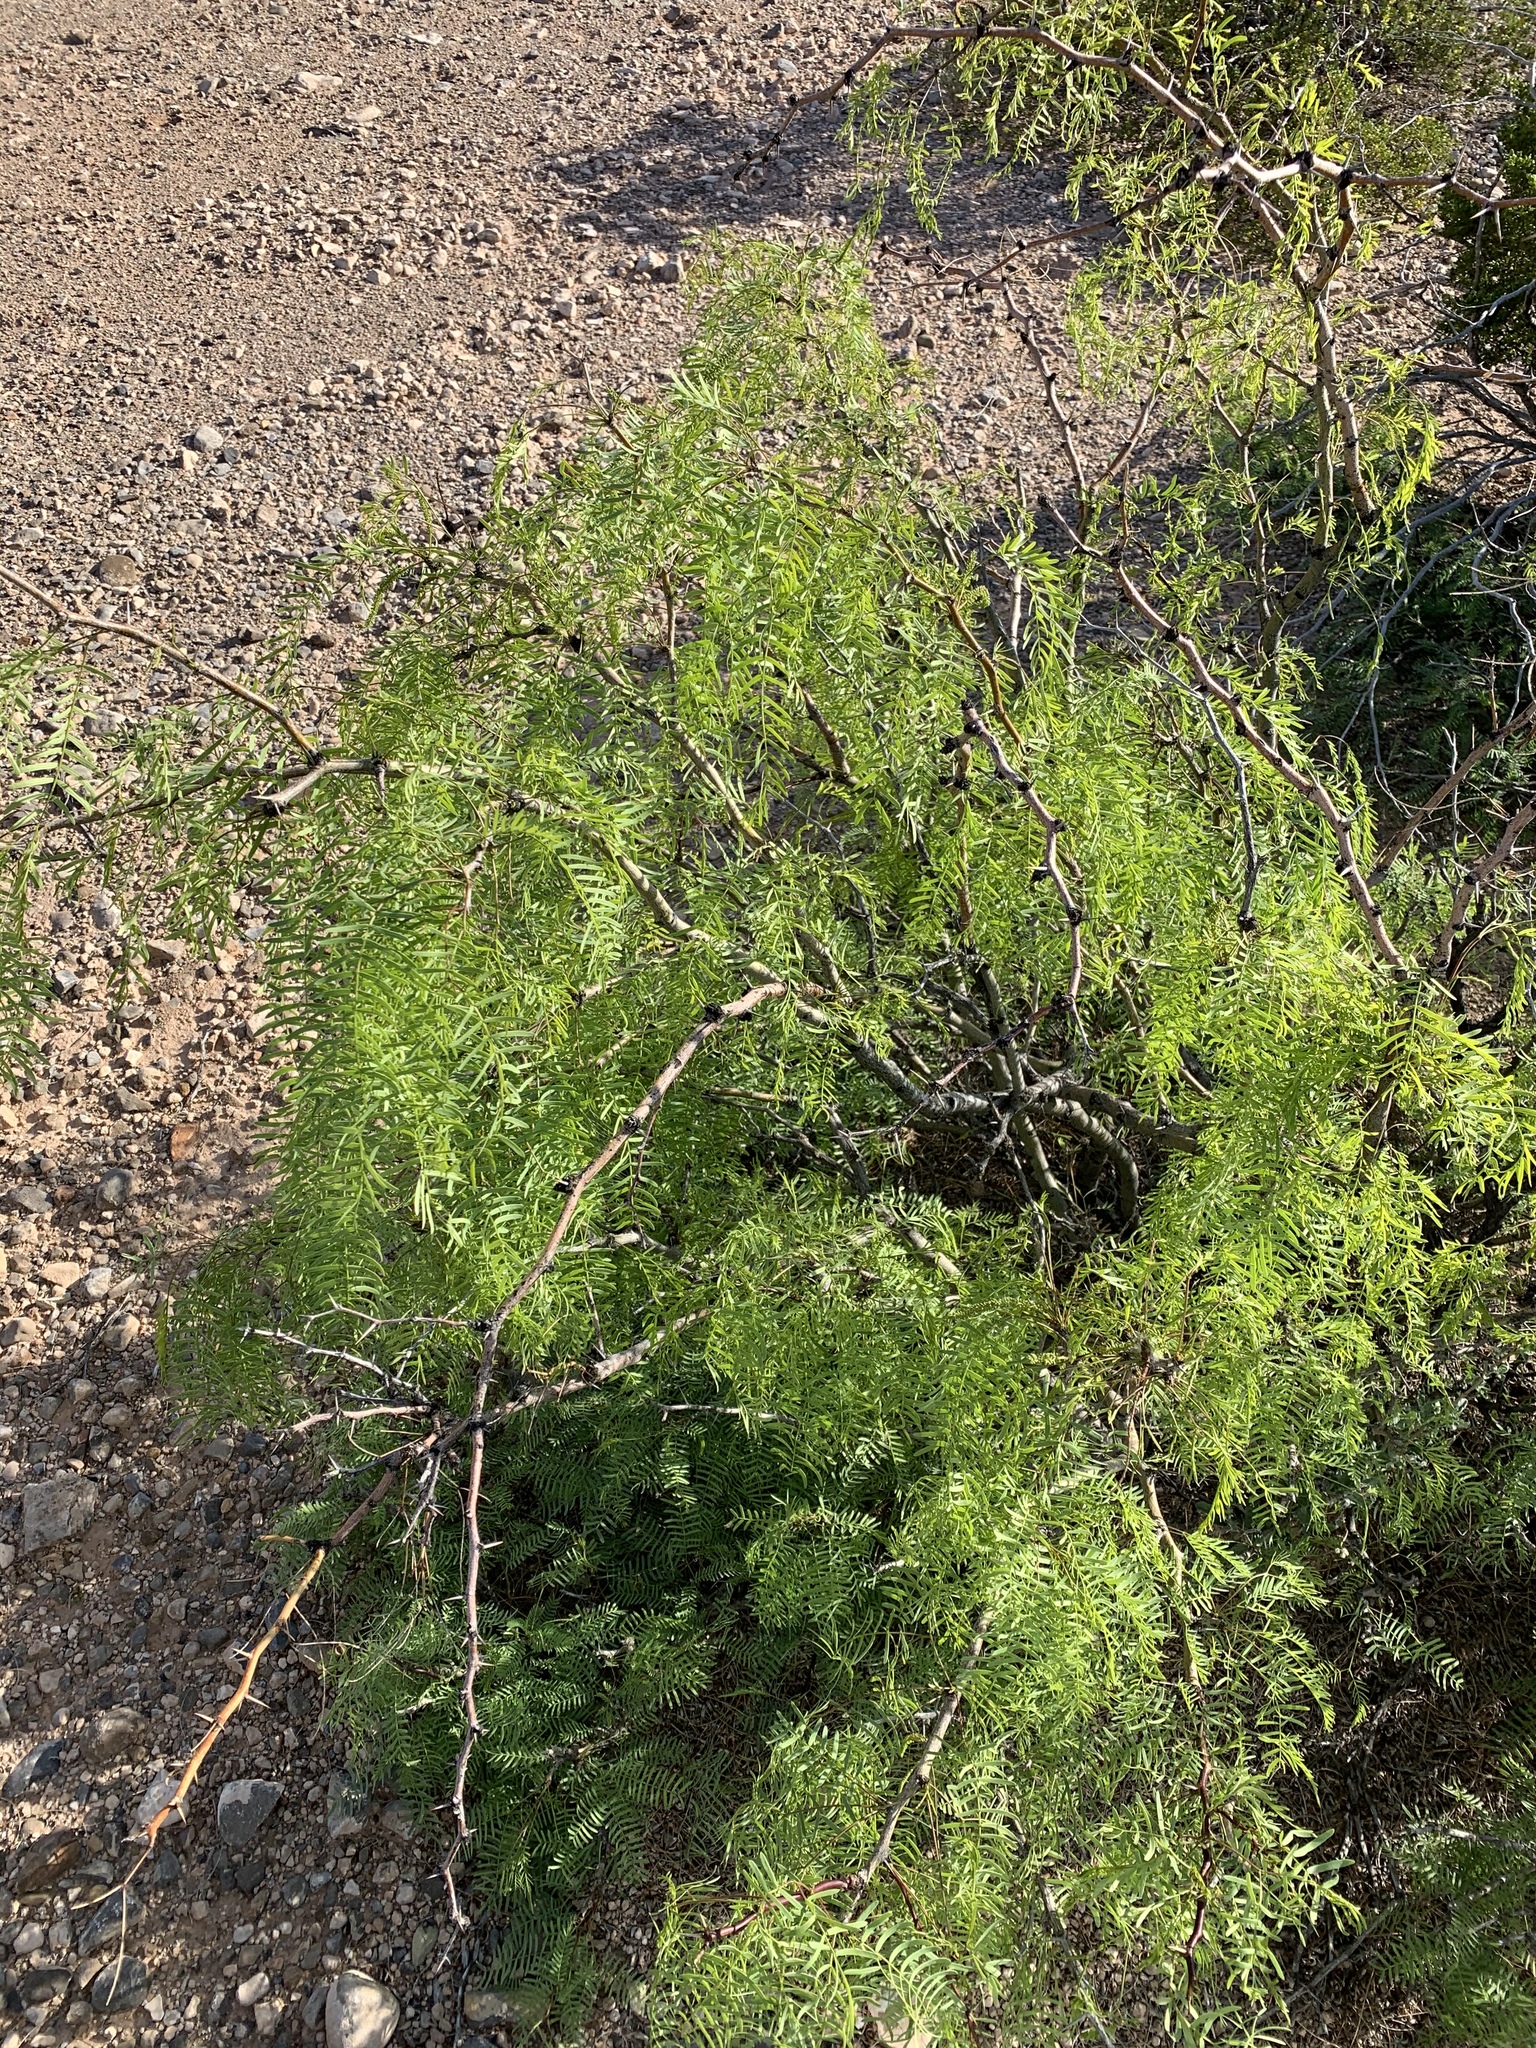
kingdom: Plantae
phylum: Tracheophyta
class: Magnoliopsida
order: Fabales
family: Fabaceae
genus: Prosopis
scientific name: Prosopis glandulosa
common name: Honey mesquite
